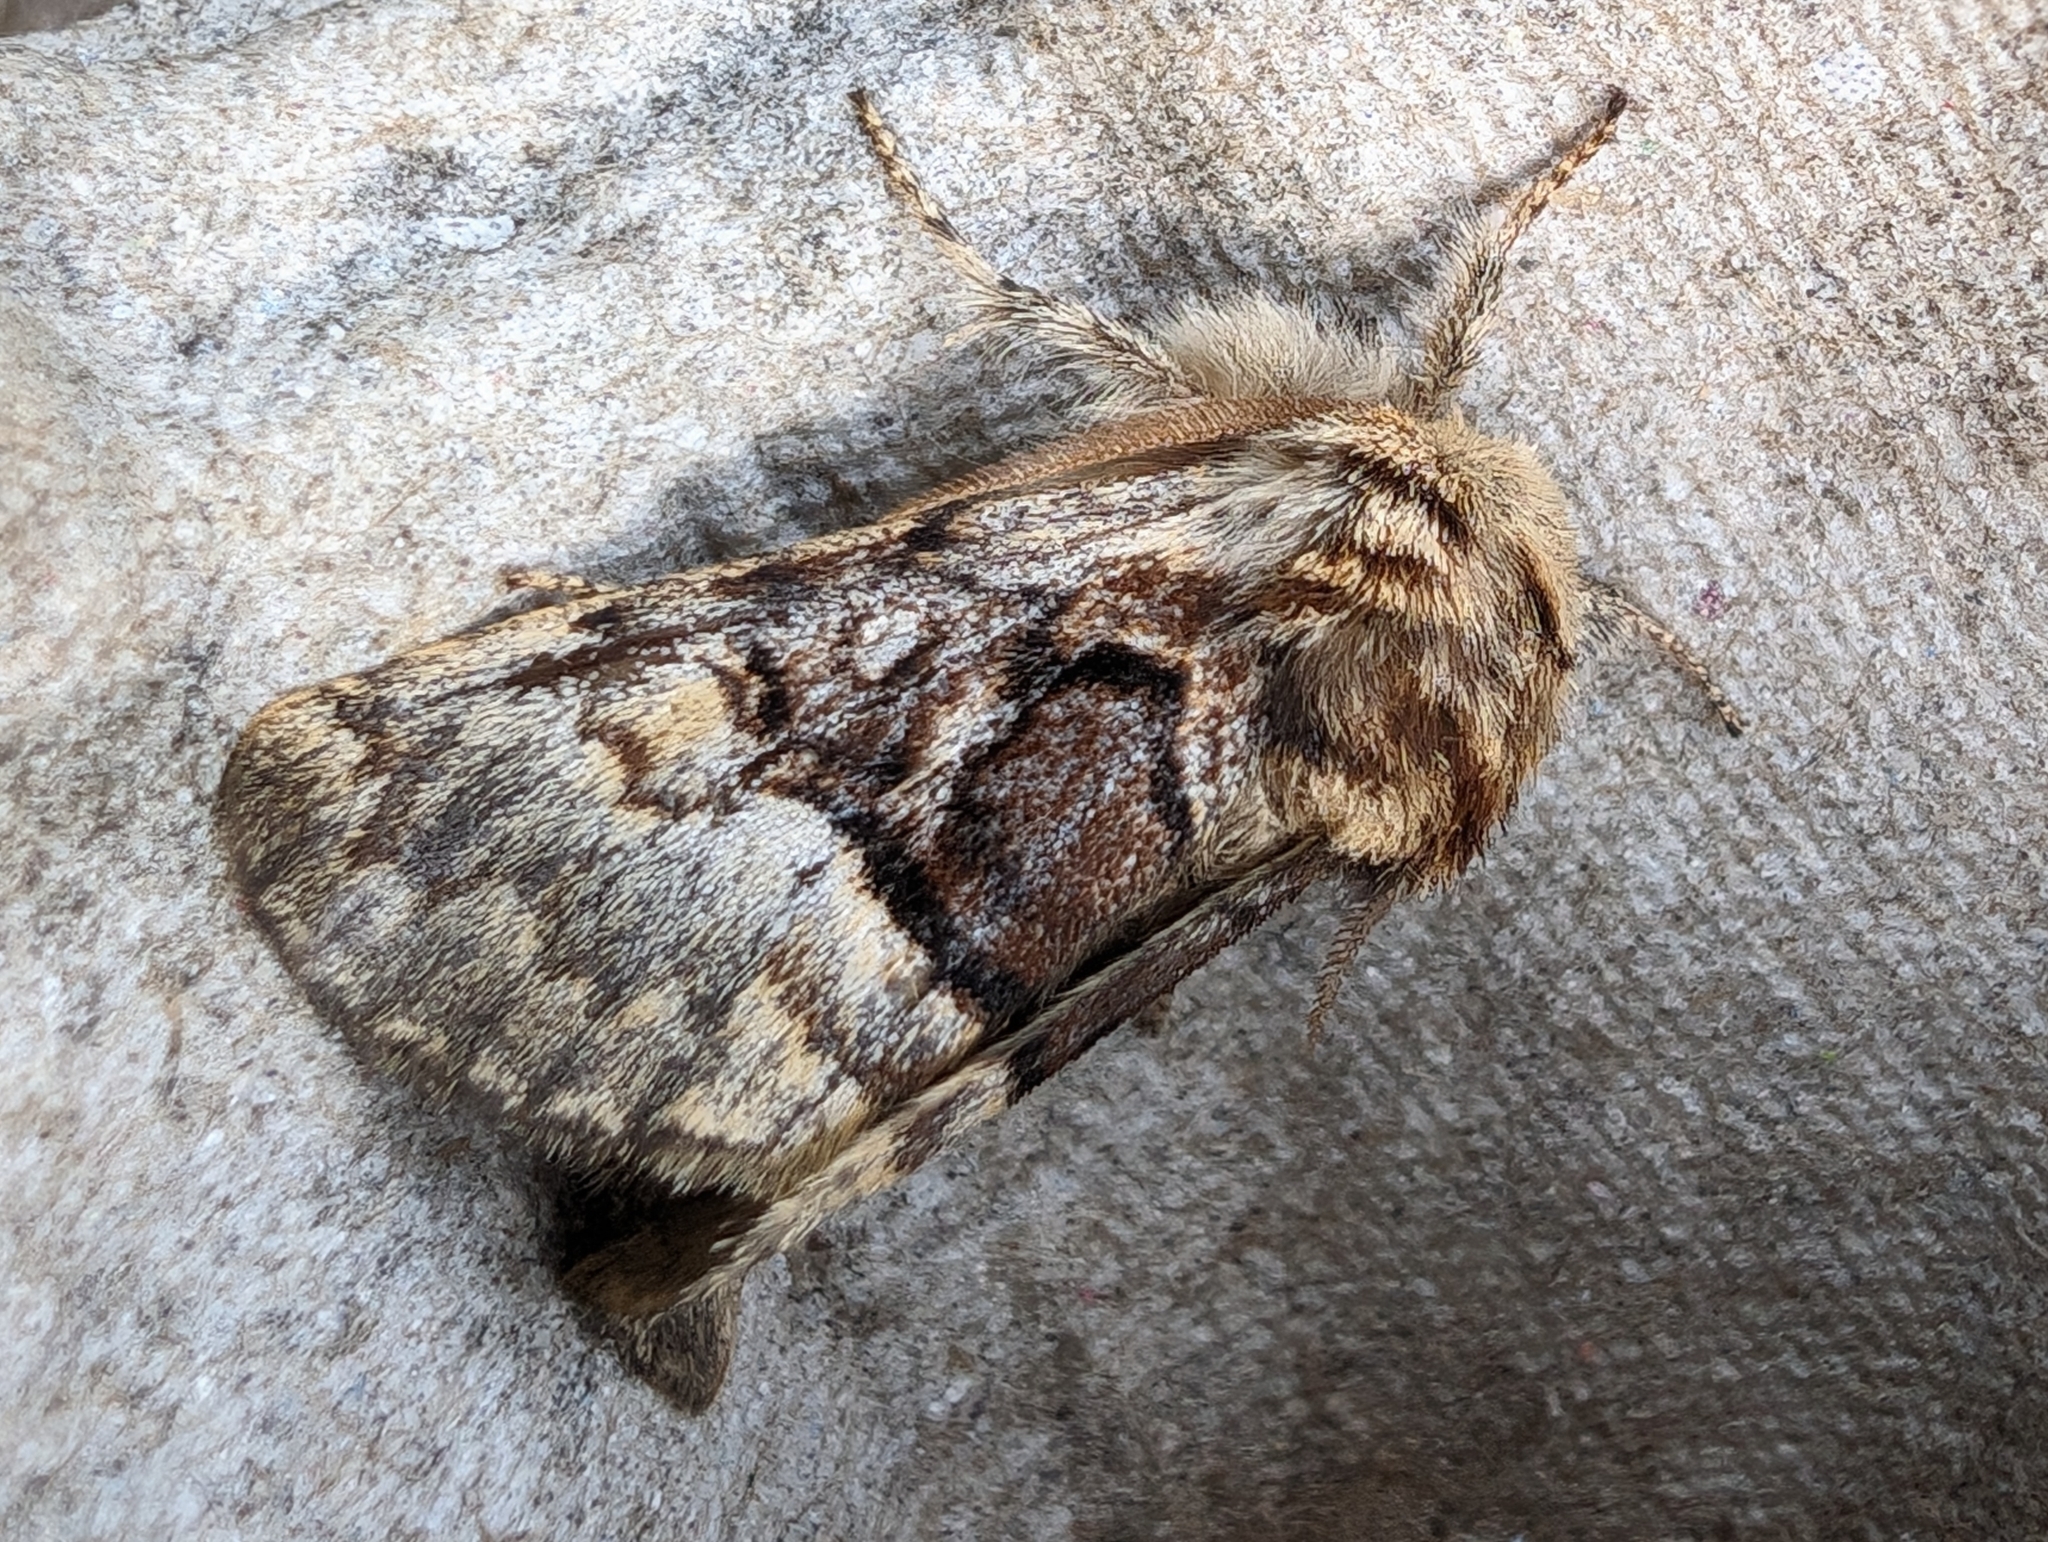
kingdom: Animalia
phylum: Arthropoda
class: Insecta
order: Lepidoptera
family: Noctuidae
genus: Colocasia
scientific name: Colocasia coryli
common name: Nut-tree tussock
